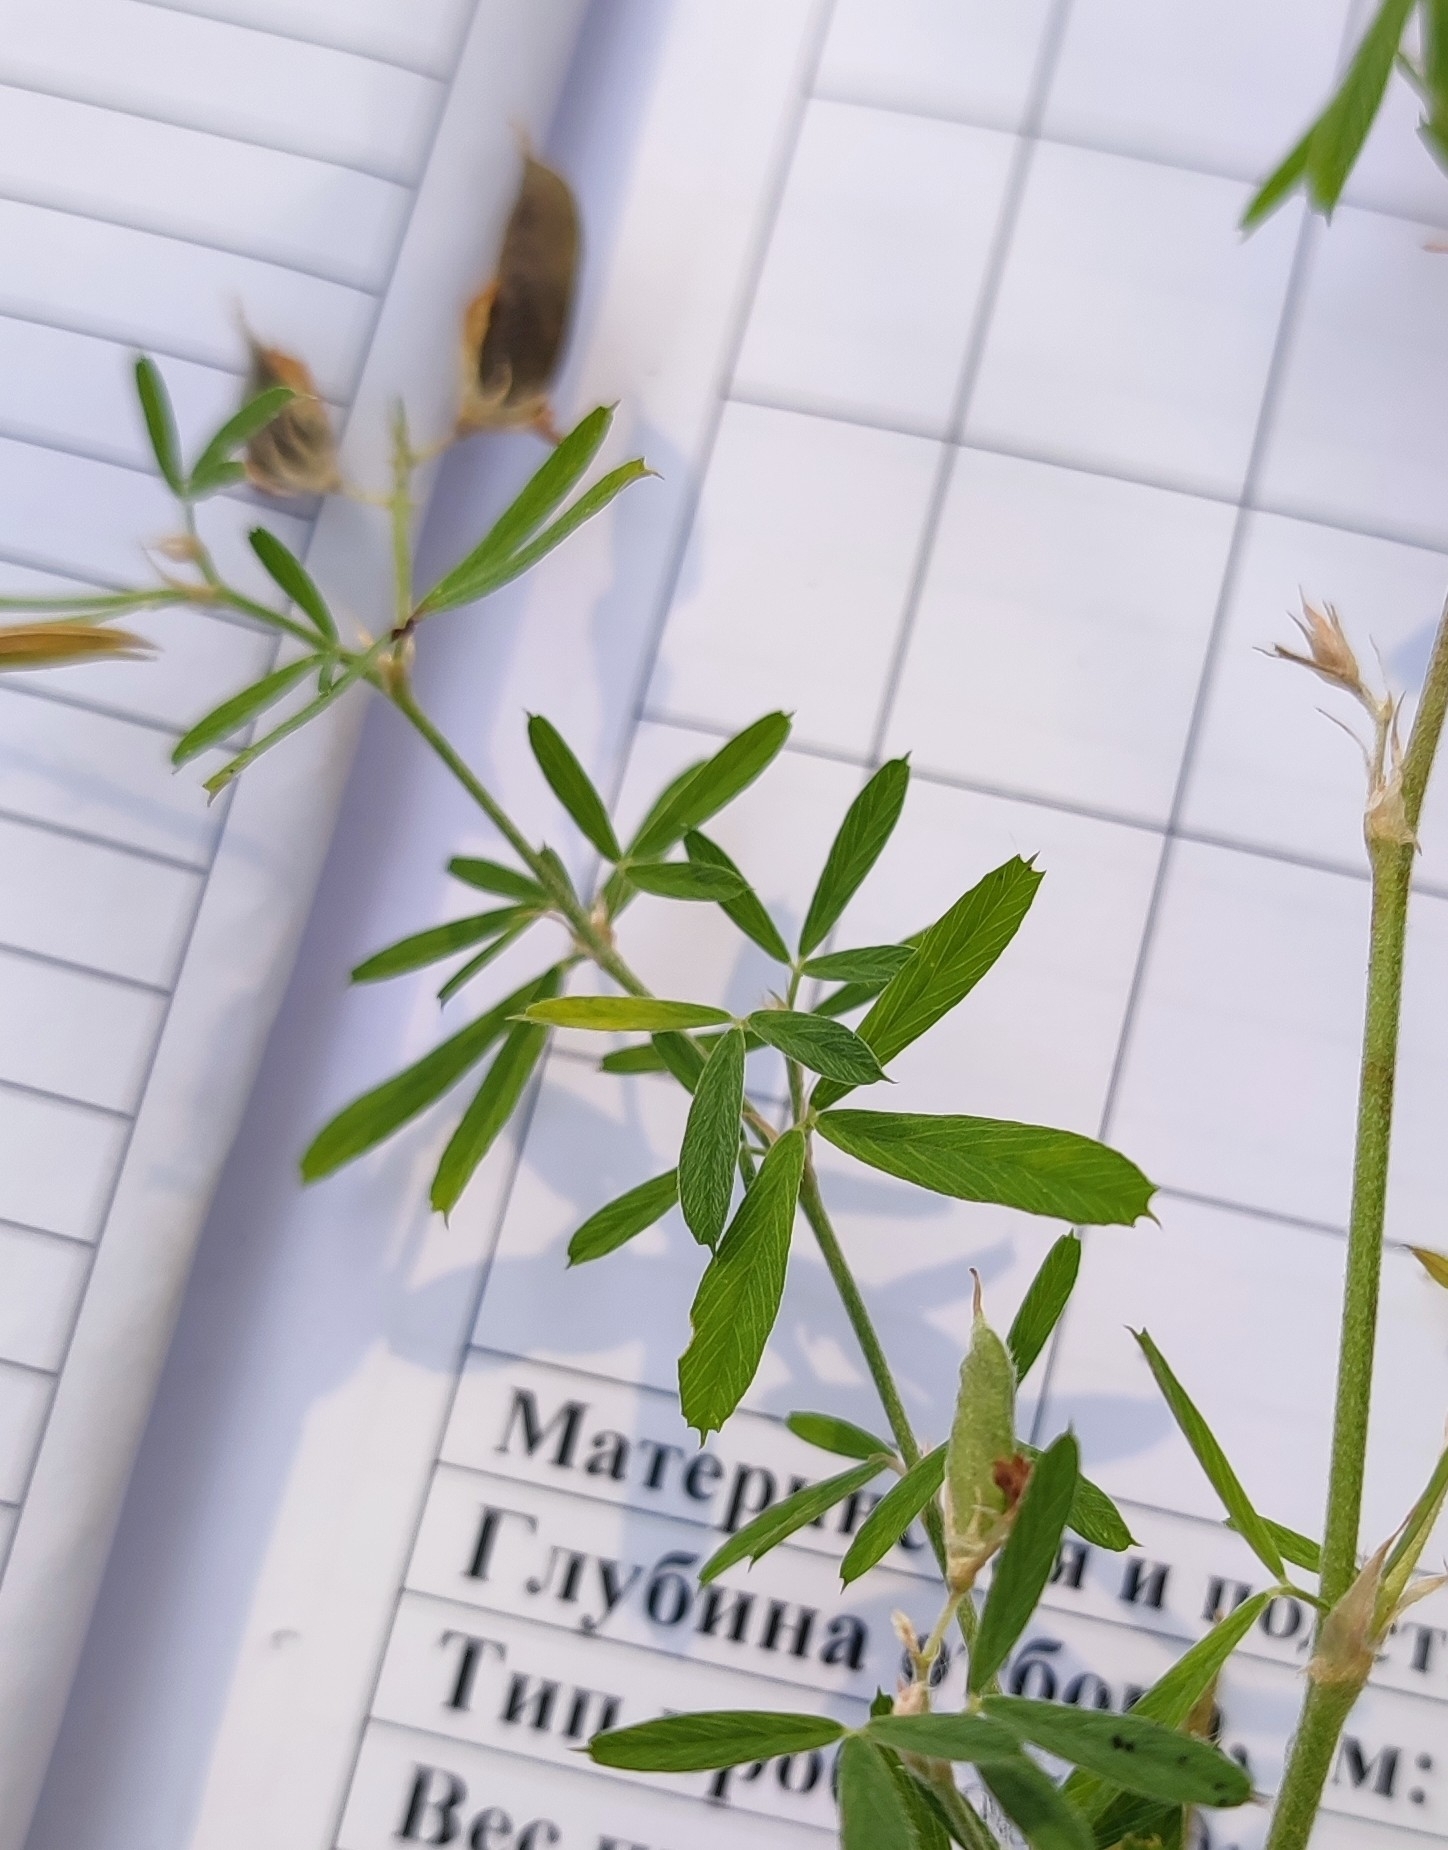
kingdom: Plantae
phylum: Tracheophyta
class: Magnoliopsida
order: Fabales
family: Fabaceae
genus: Trifolium
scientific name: Trifolium lupinaster
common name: Lupine clover
